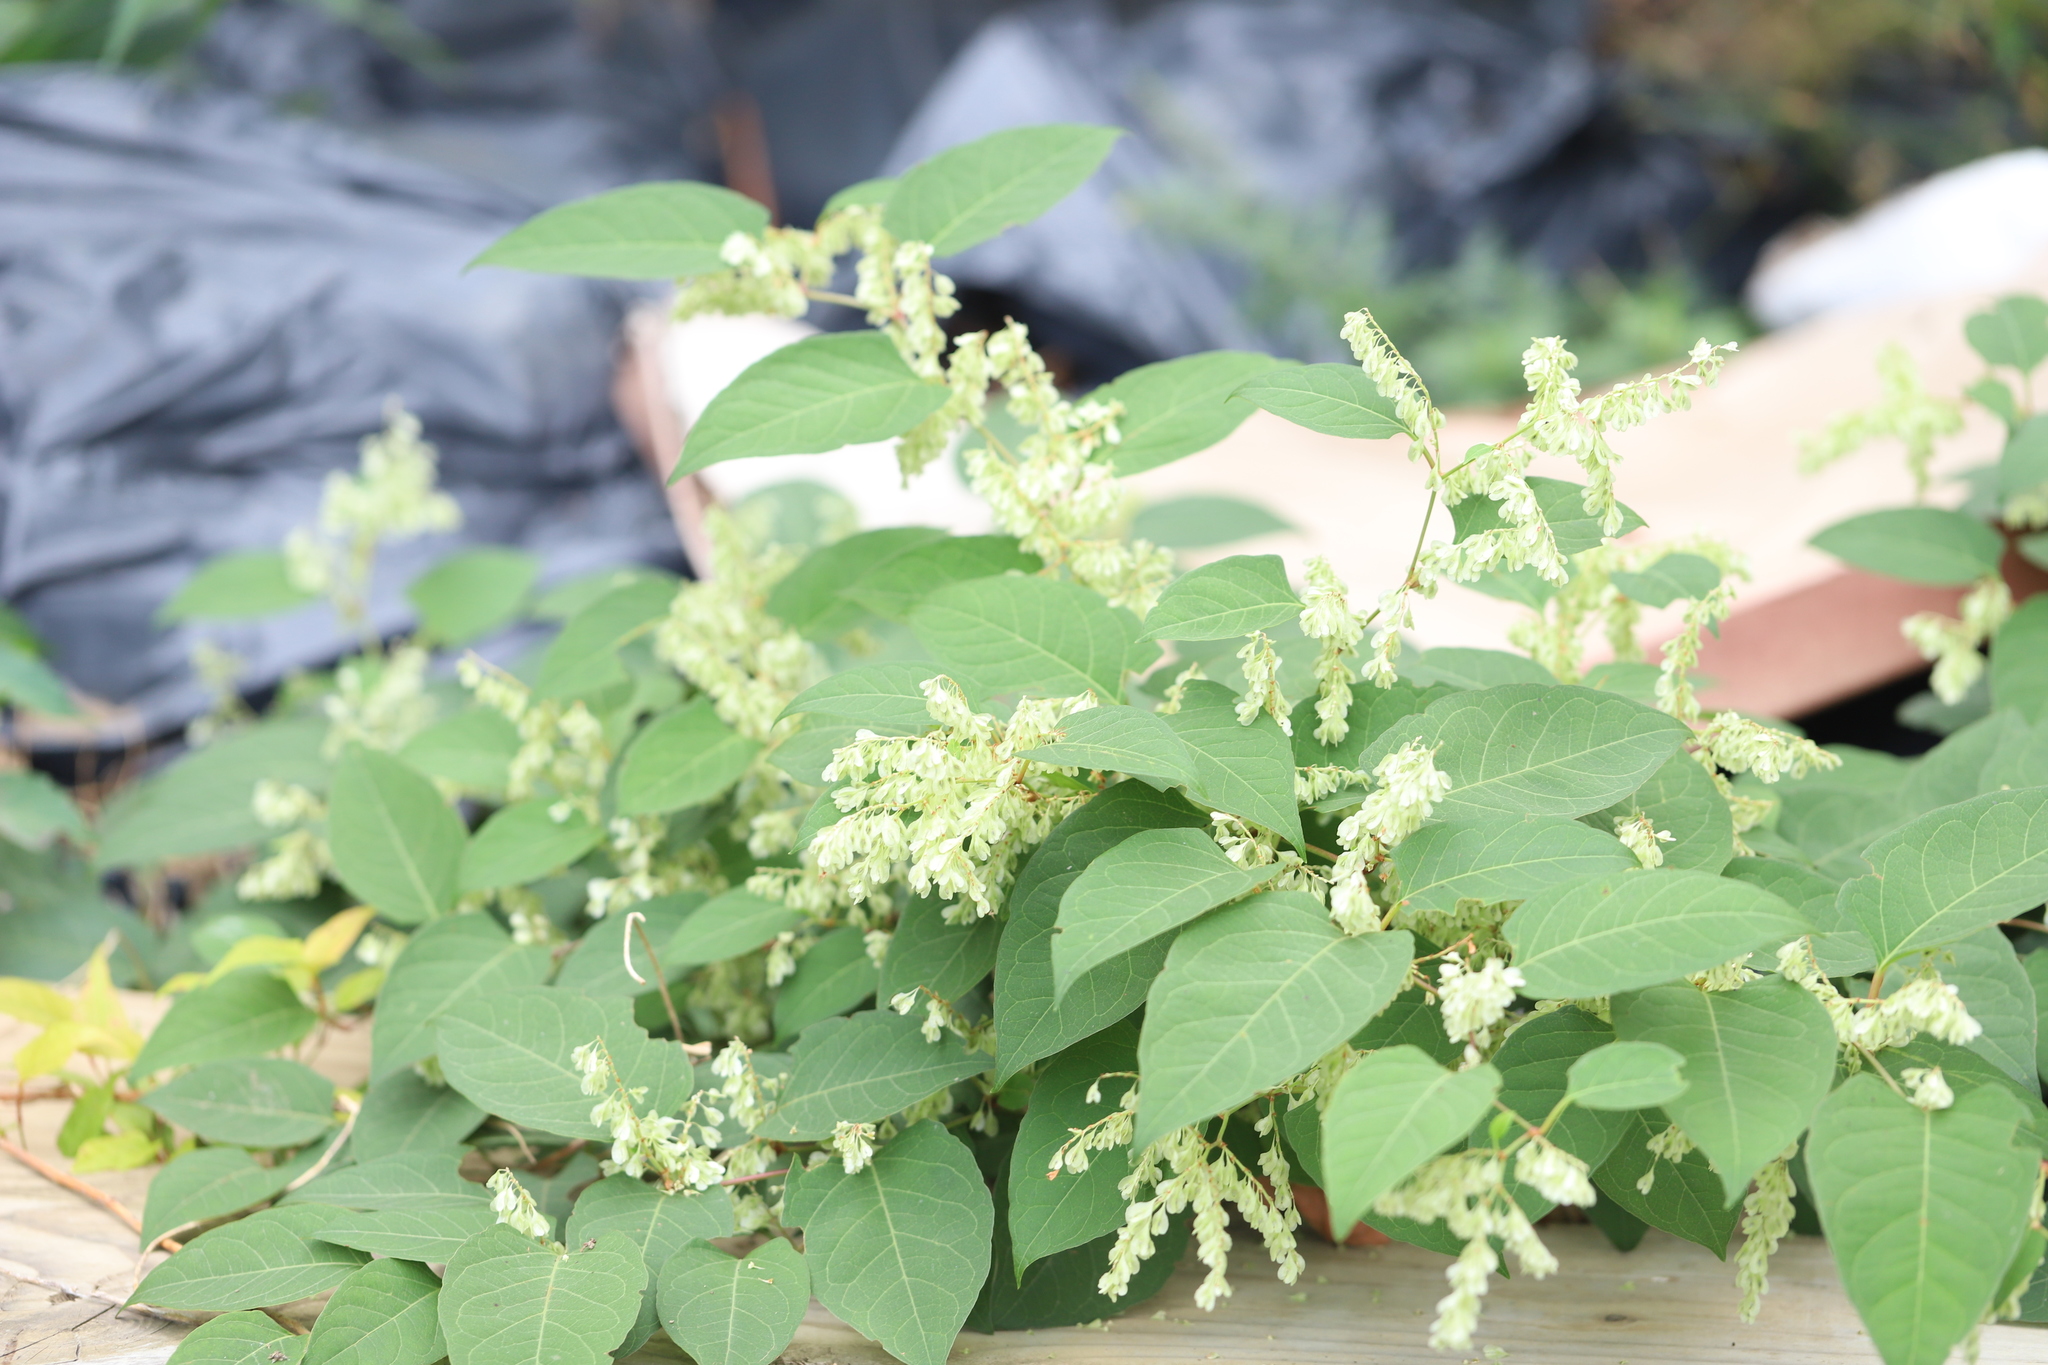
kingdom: Plantae
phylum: Tracheophyta
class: Magnoliopsida
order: Caryophyllales
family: Polygonaceae
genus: Reynoutria
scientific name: Reynoutria japonica
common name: Japanese knotweed
